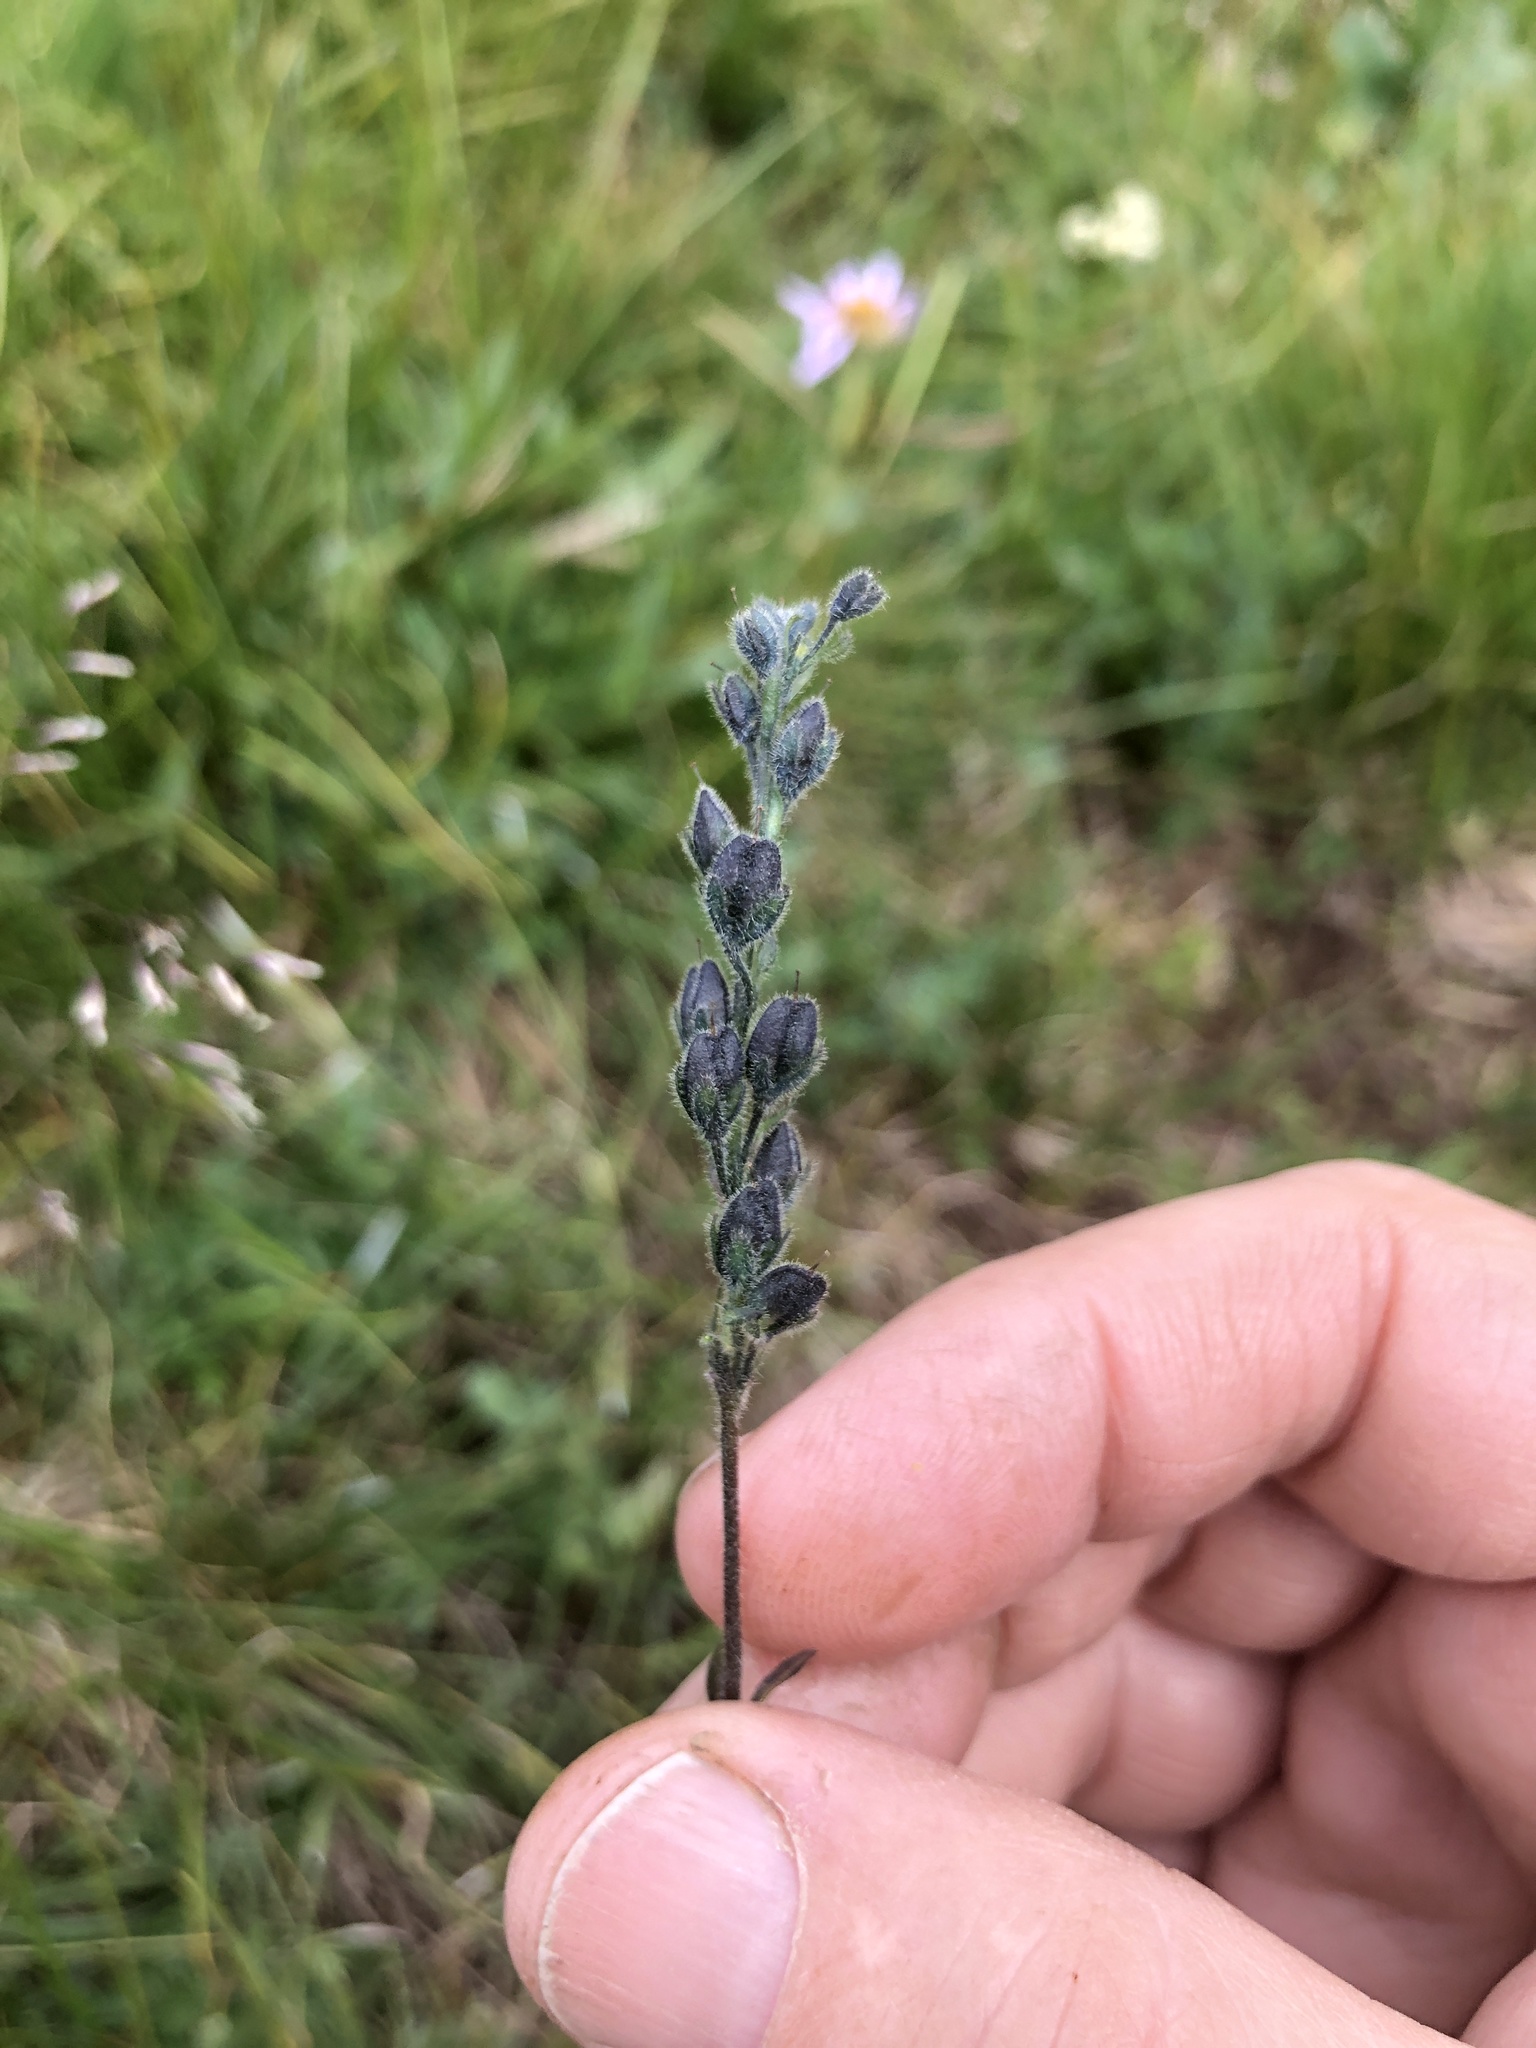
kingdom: Plantae
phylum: Tracheophyta
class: Magnoliopsida
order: Lamiales
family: Plantaginaceae
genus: Veronica
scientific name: Veronica wormskjoldii
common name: American alpine speedwell
